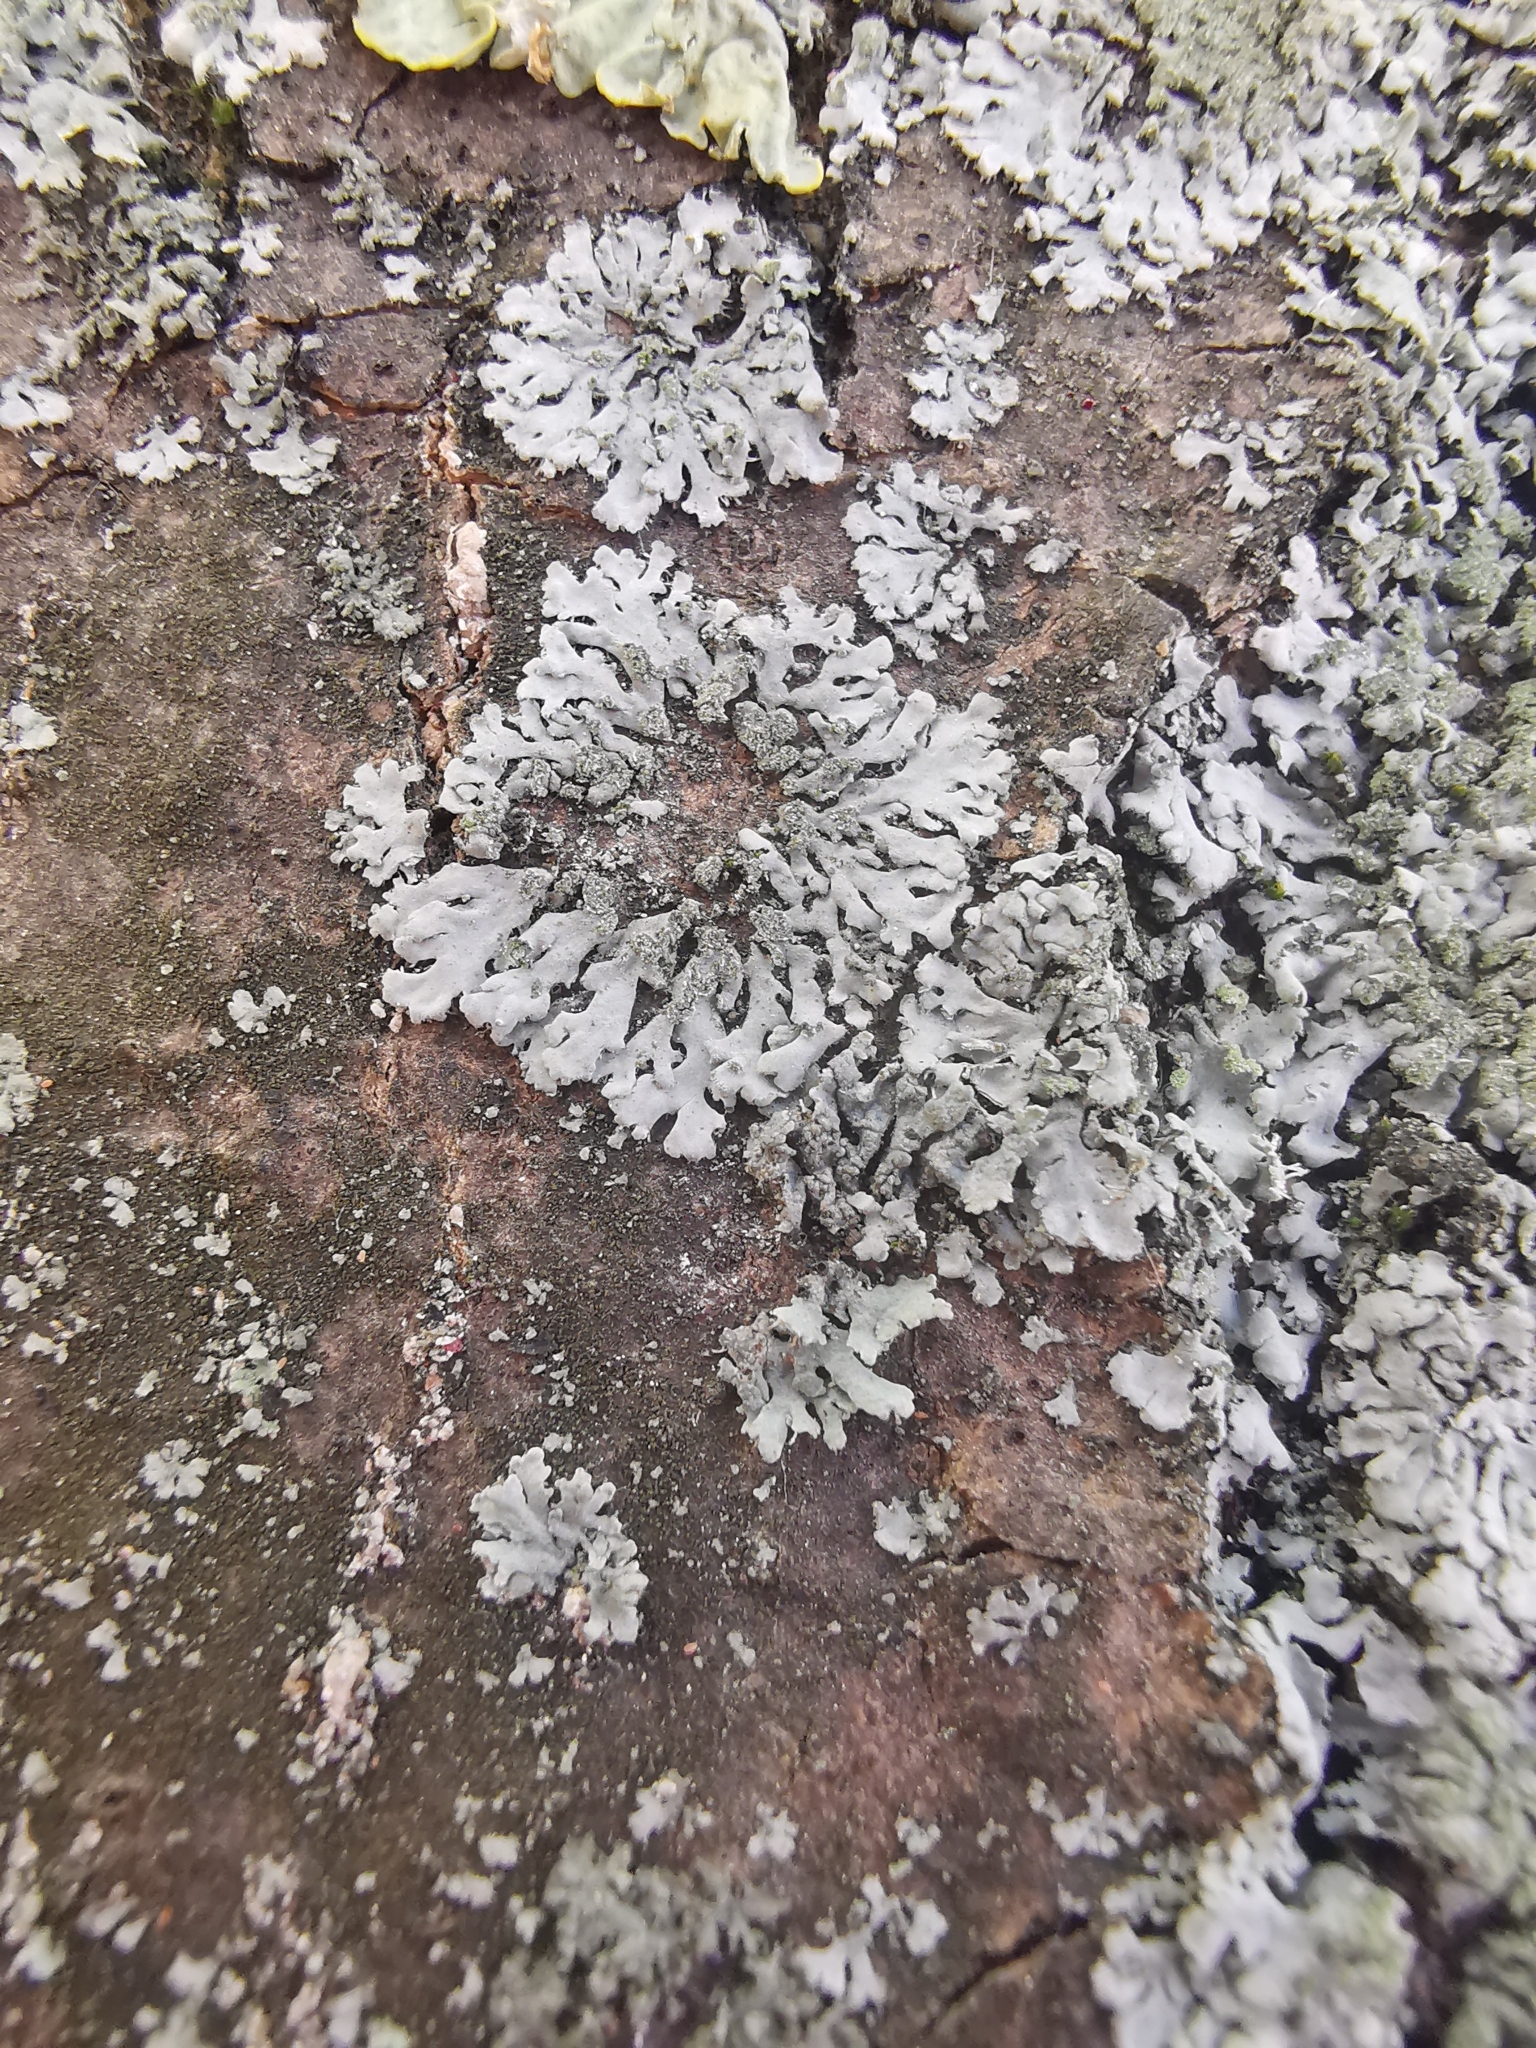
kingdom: Fungi
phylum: Ascomycota
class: Lecanoromycetes
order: Caliciales
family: Physciaceae
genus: Phaeophyscia
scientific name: Phaeophyscia orbicularis
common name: Mealy shadow lichen
